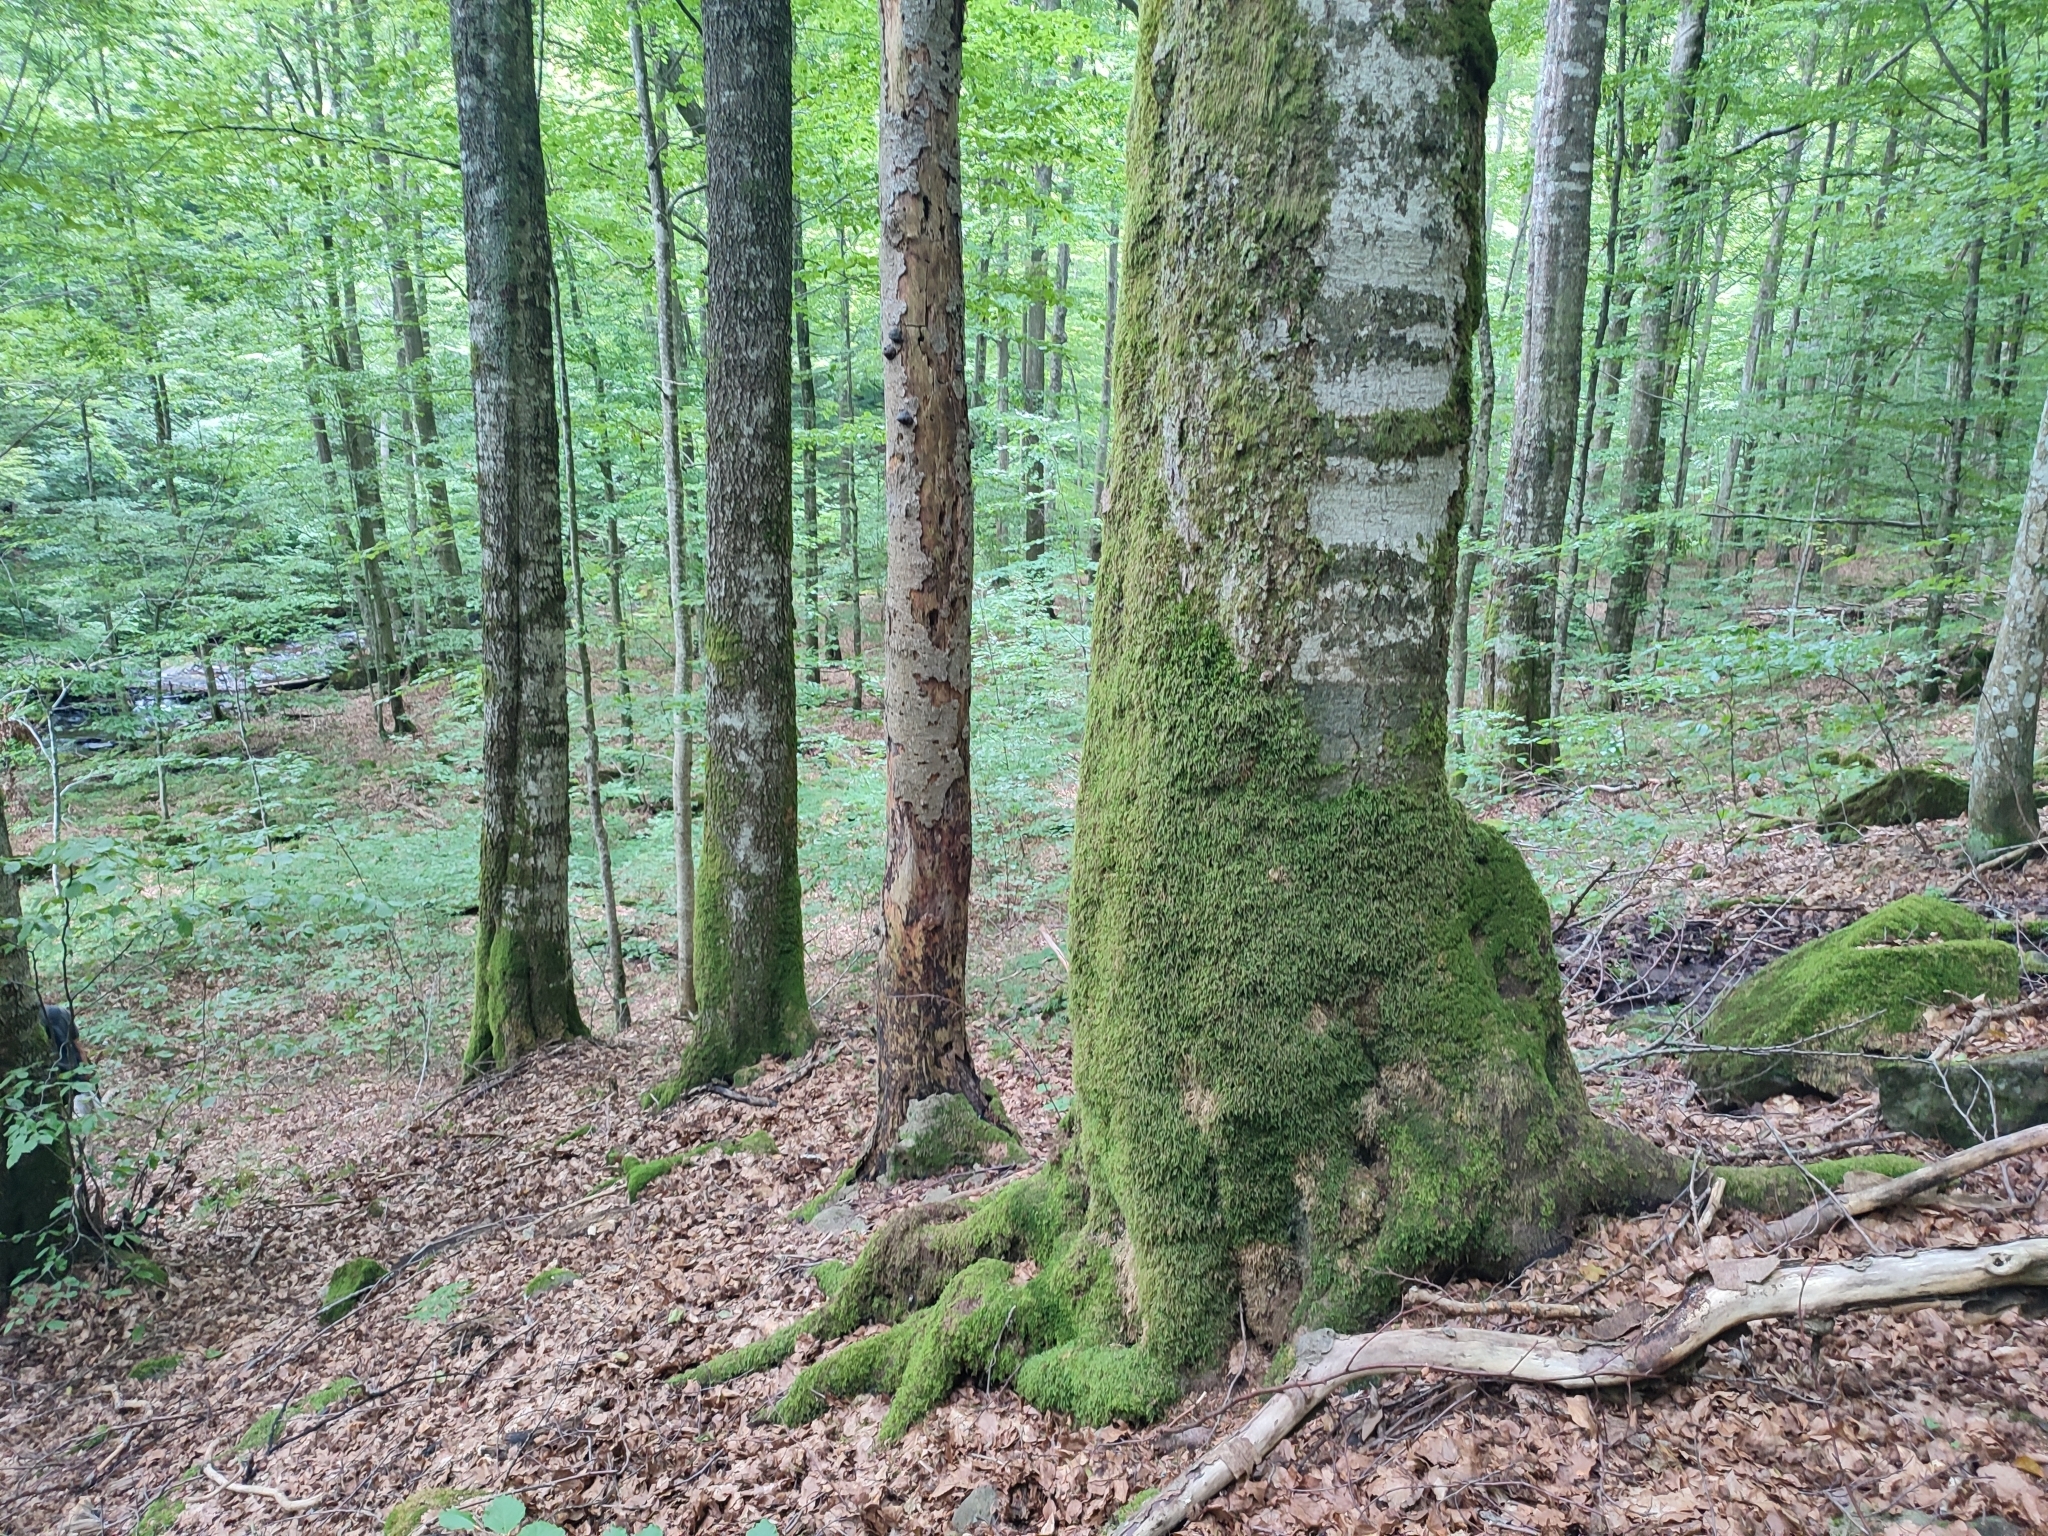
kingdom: Plantae
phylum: Tracheophyta
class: Magnoliopsida
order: Fagales
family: Fagaceae
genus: Fagus
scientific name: Fagus sylvatica
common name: Beech
